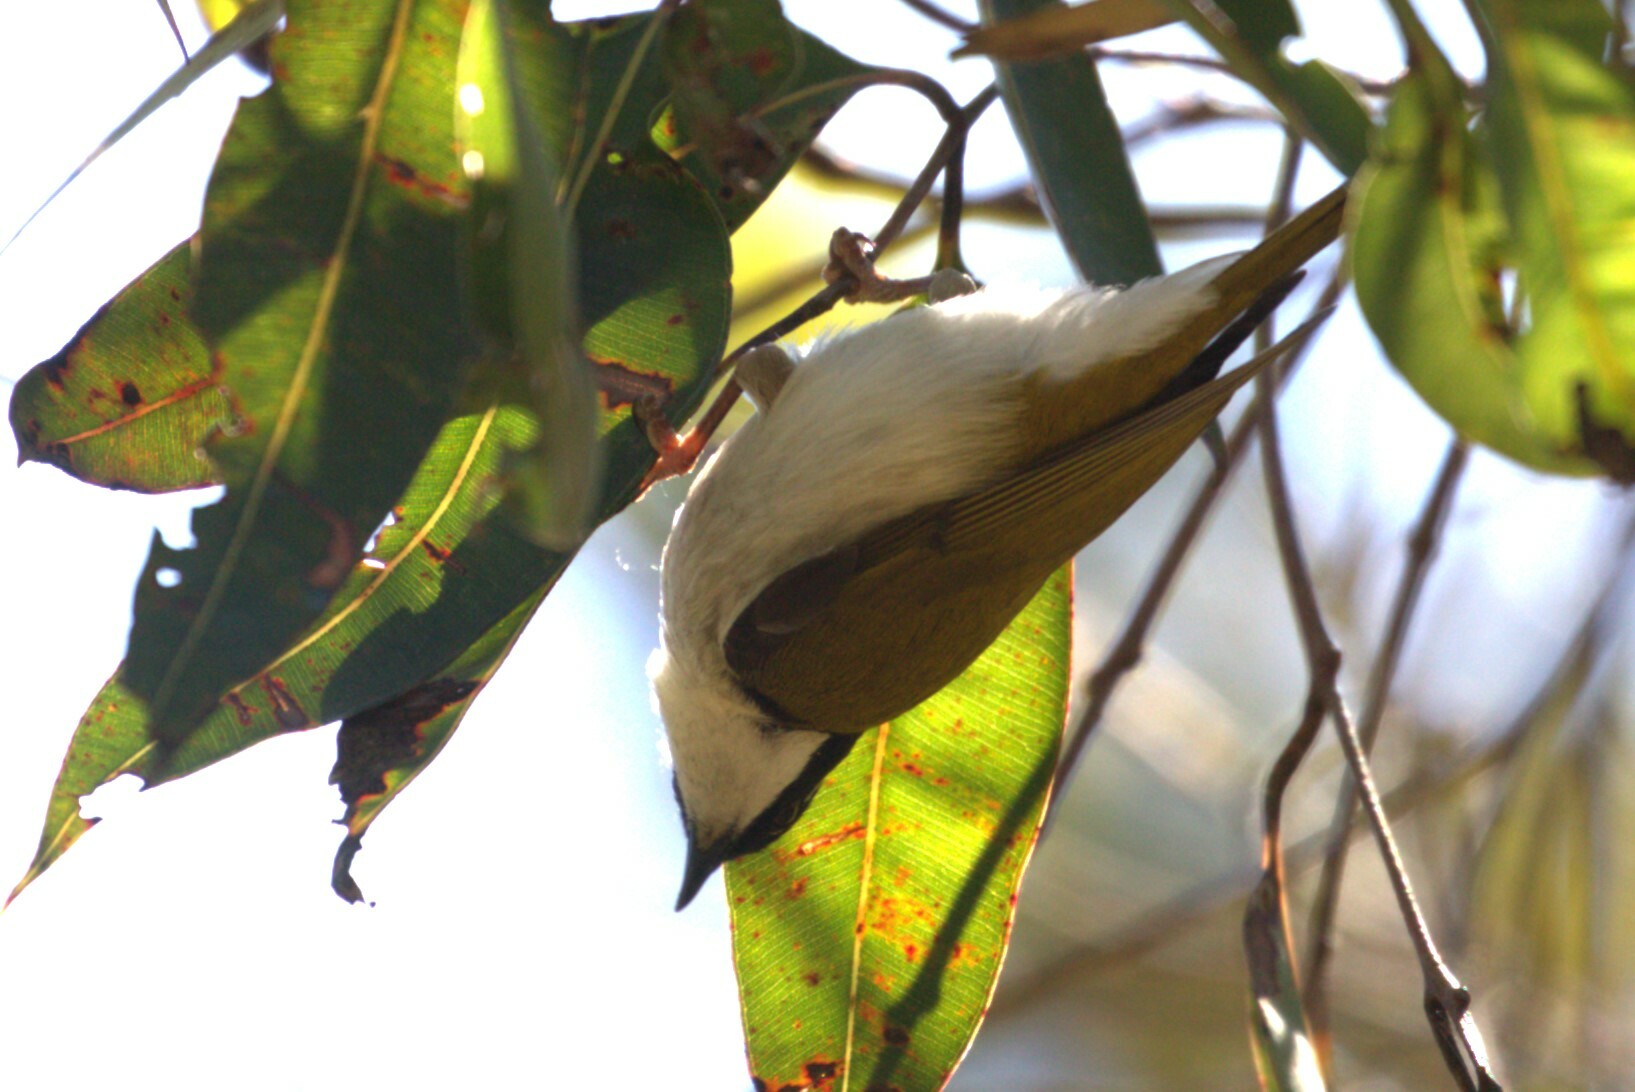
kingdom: Animalia
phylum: Chordata
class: Aves
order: Passeriformes
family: Meliphagidae
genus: Melithreptus
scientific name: Melithreptus albogularis
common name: White-throated honeyeater
